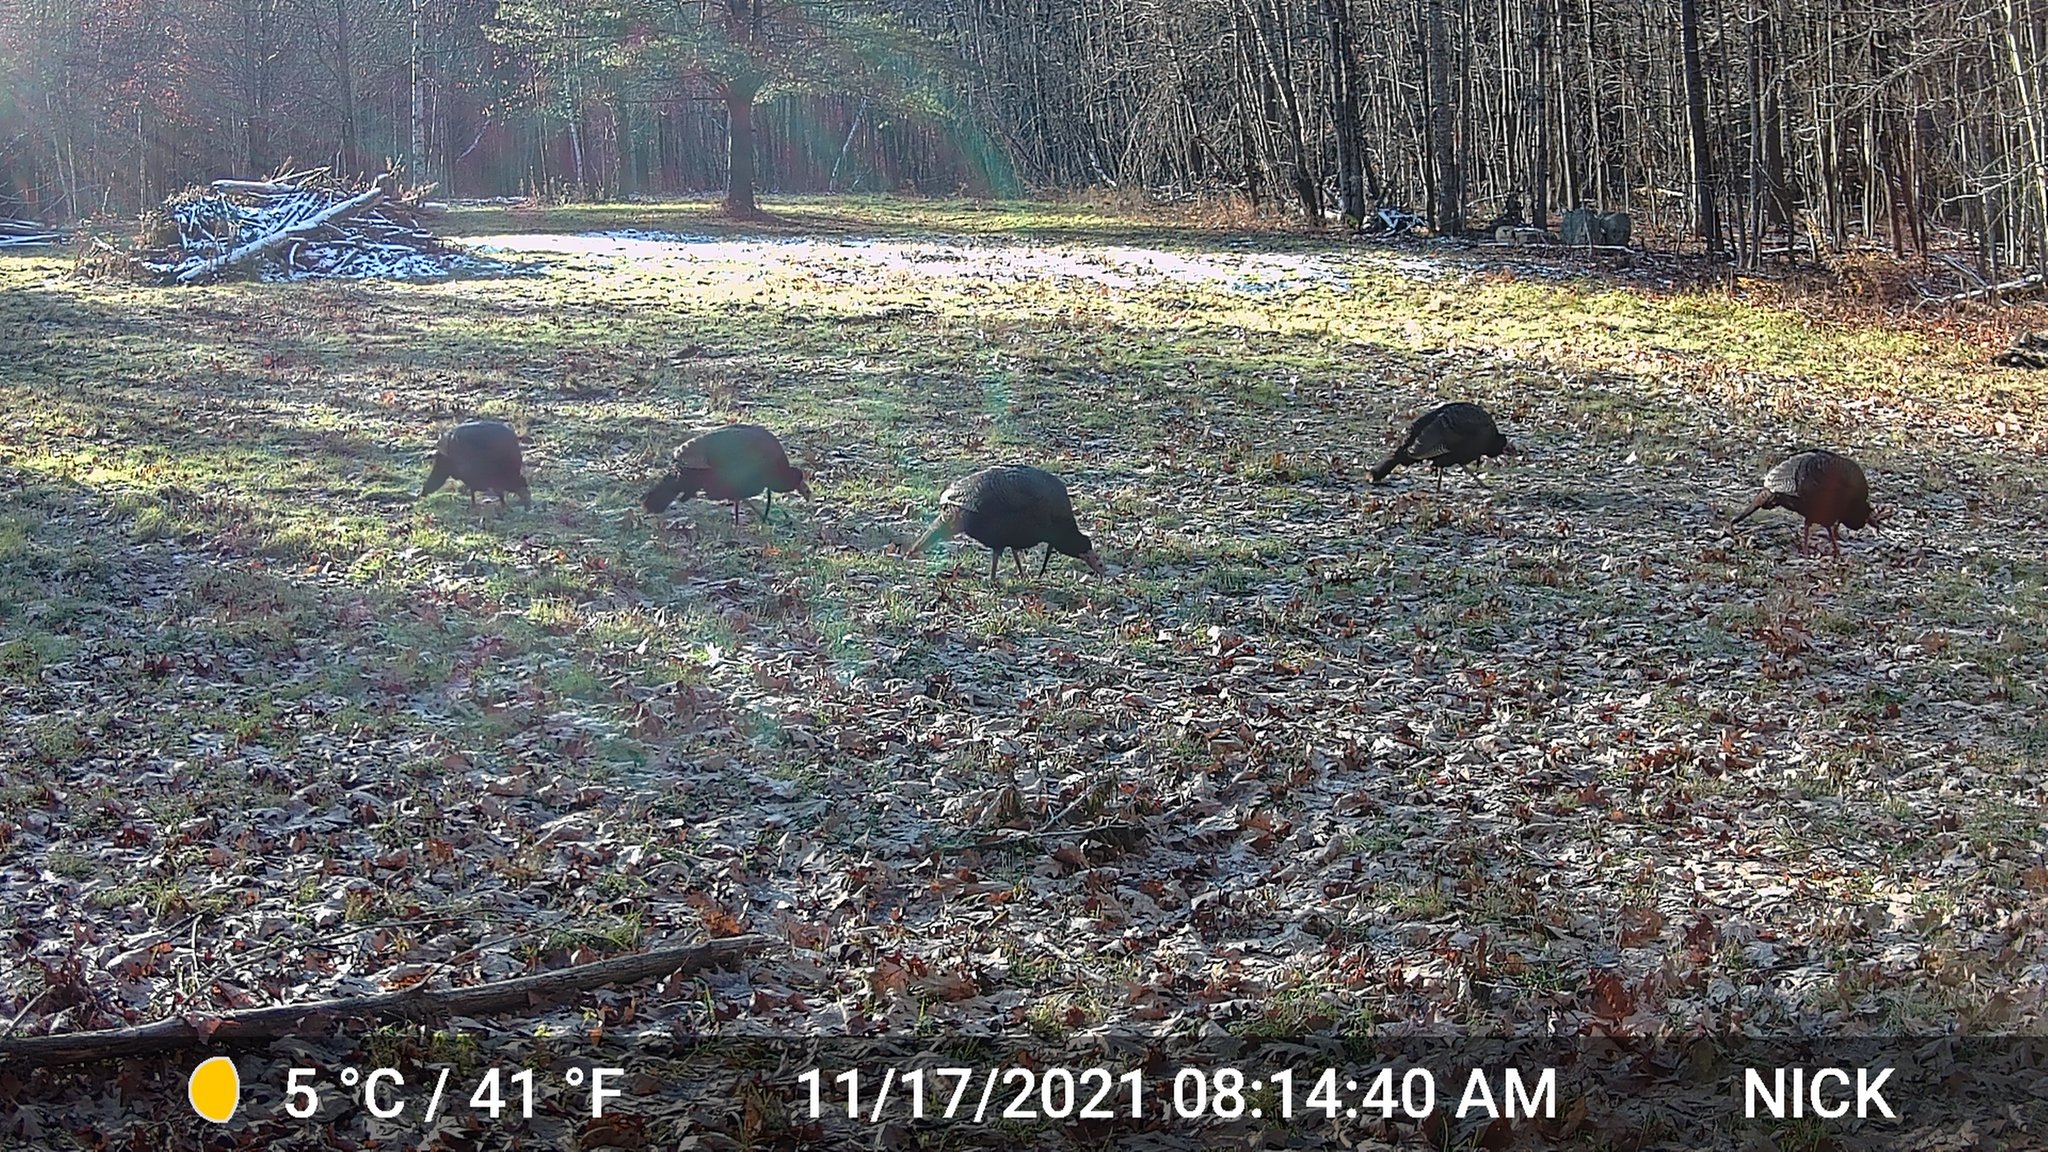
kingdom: Animalia
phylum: Chordata
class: Aves
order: Galliformes
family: Phasianidae
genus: Meleagris
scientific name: Meleagris gallopavo
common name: Wild turkey
